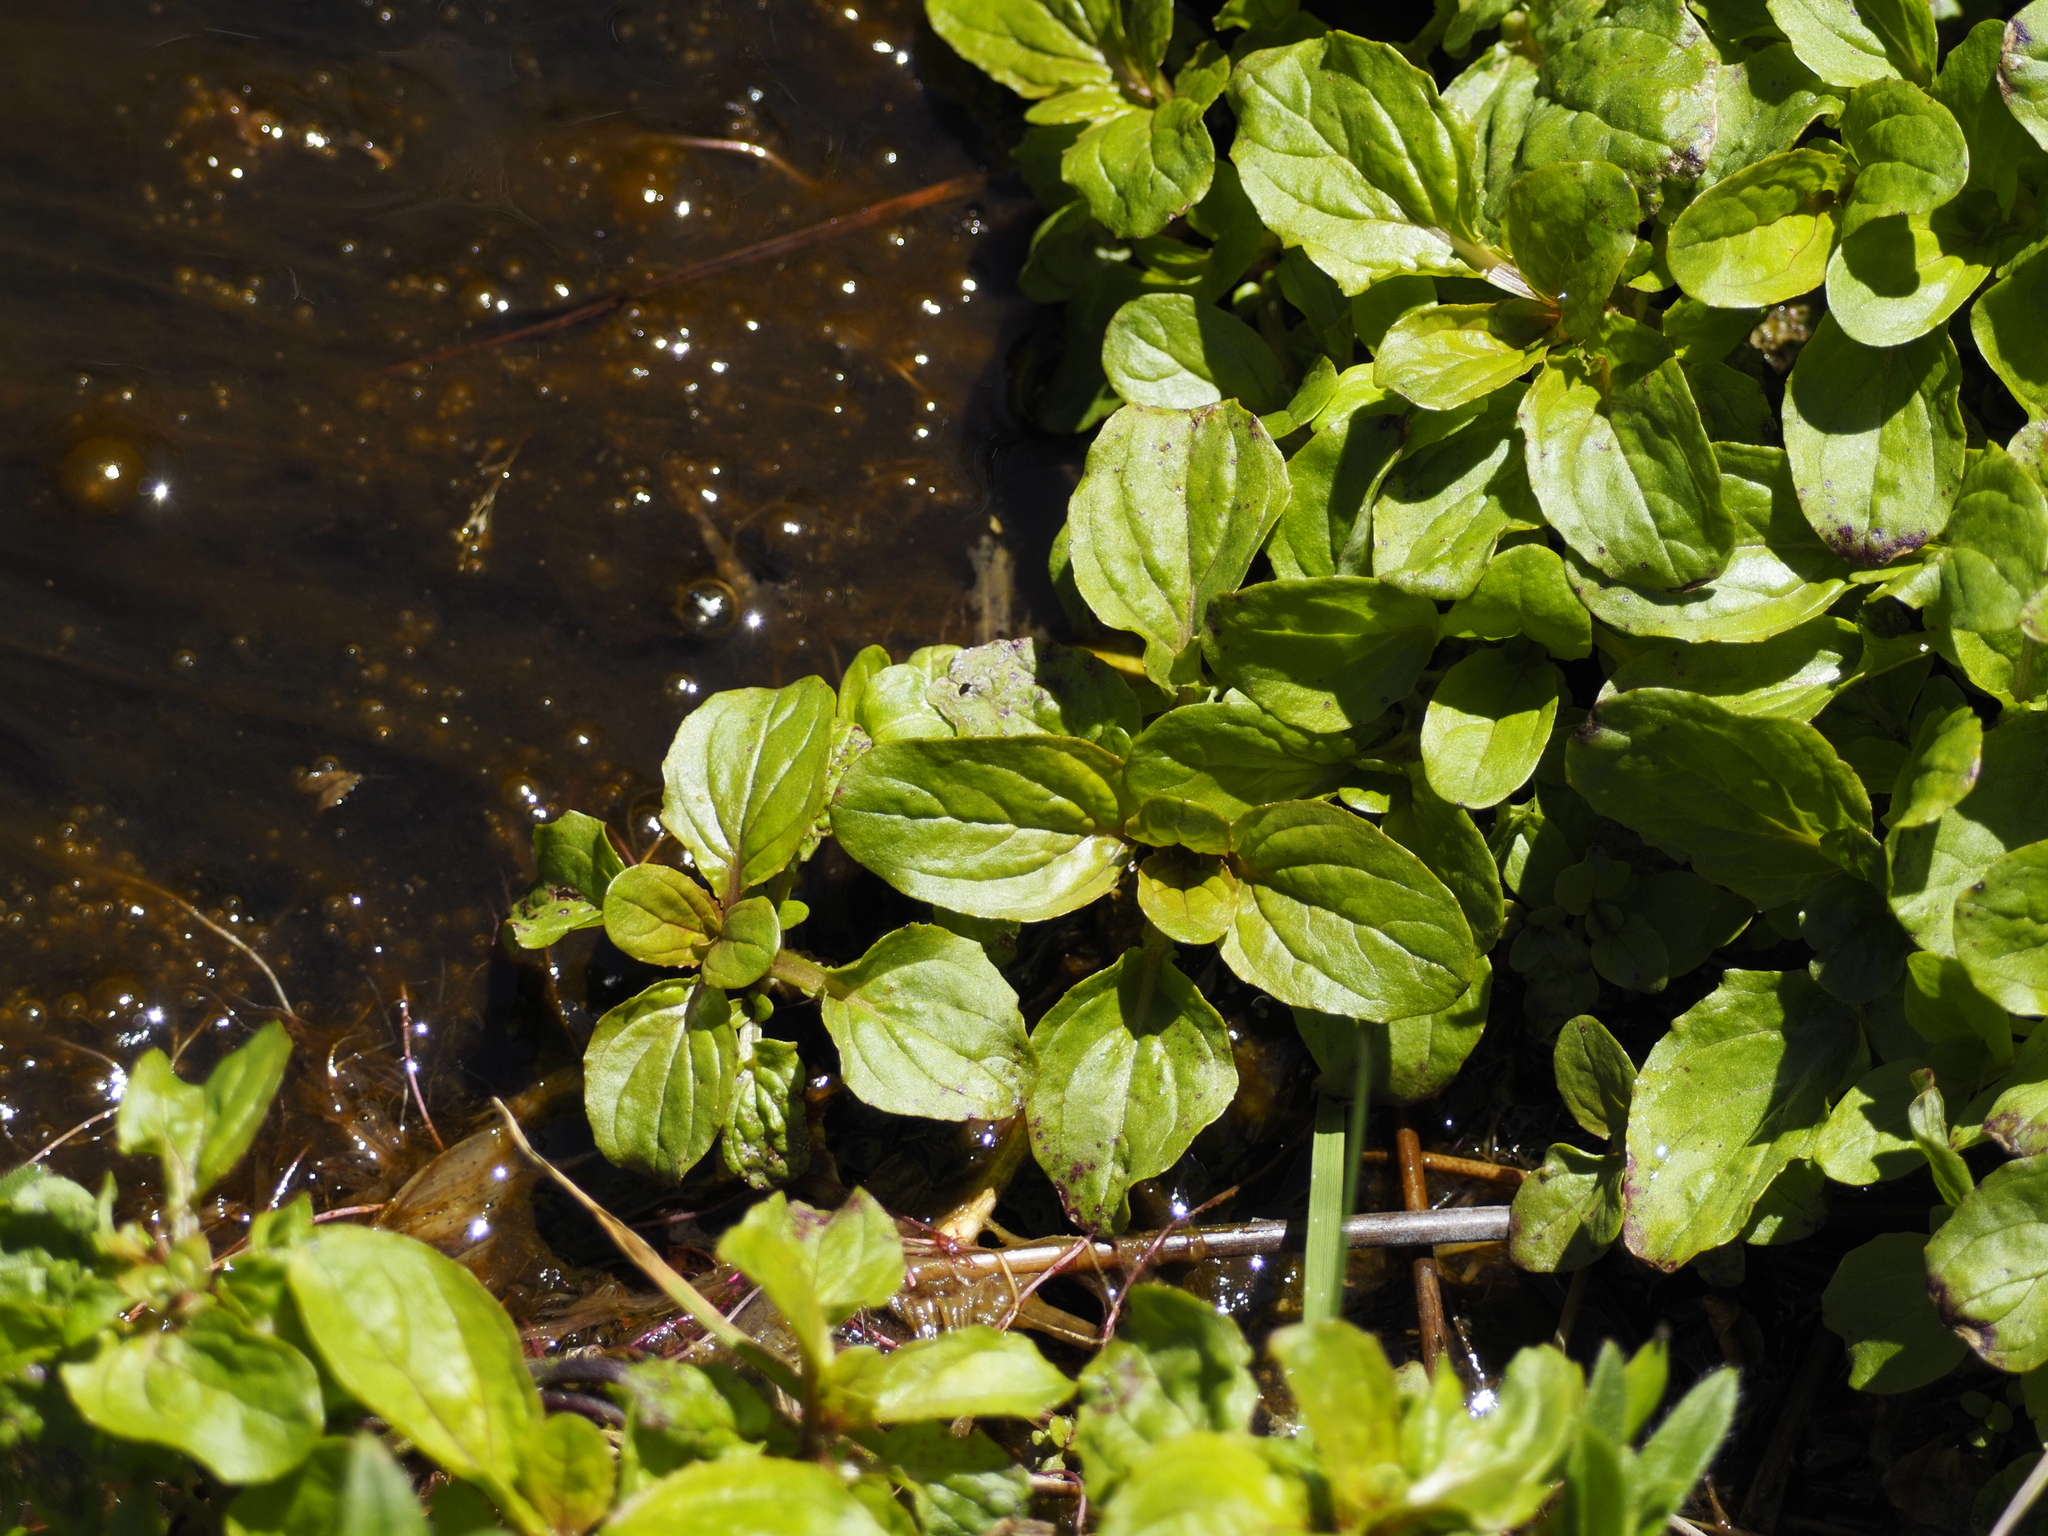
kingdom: Plantae
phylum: Tracheophyta
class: Magnoliopsida
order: Lamiales
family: Phrymaceae
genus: Erythranthe
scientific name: Erythranthe guttata
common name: Monkeyflower
